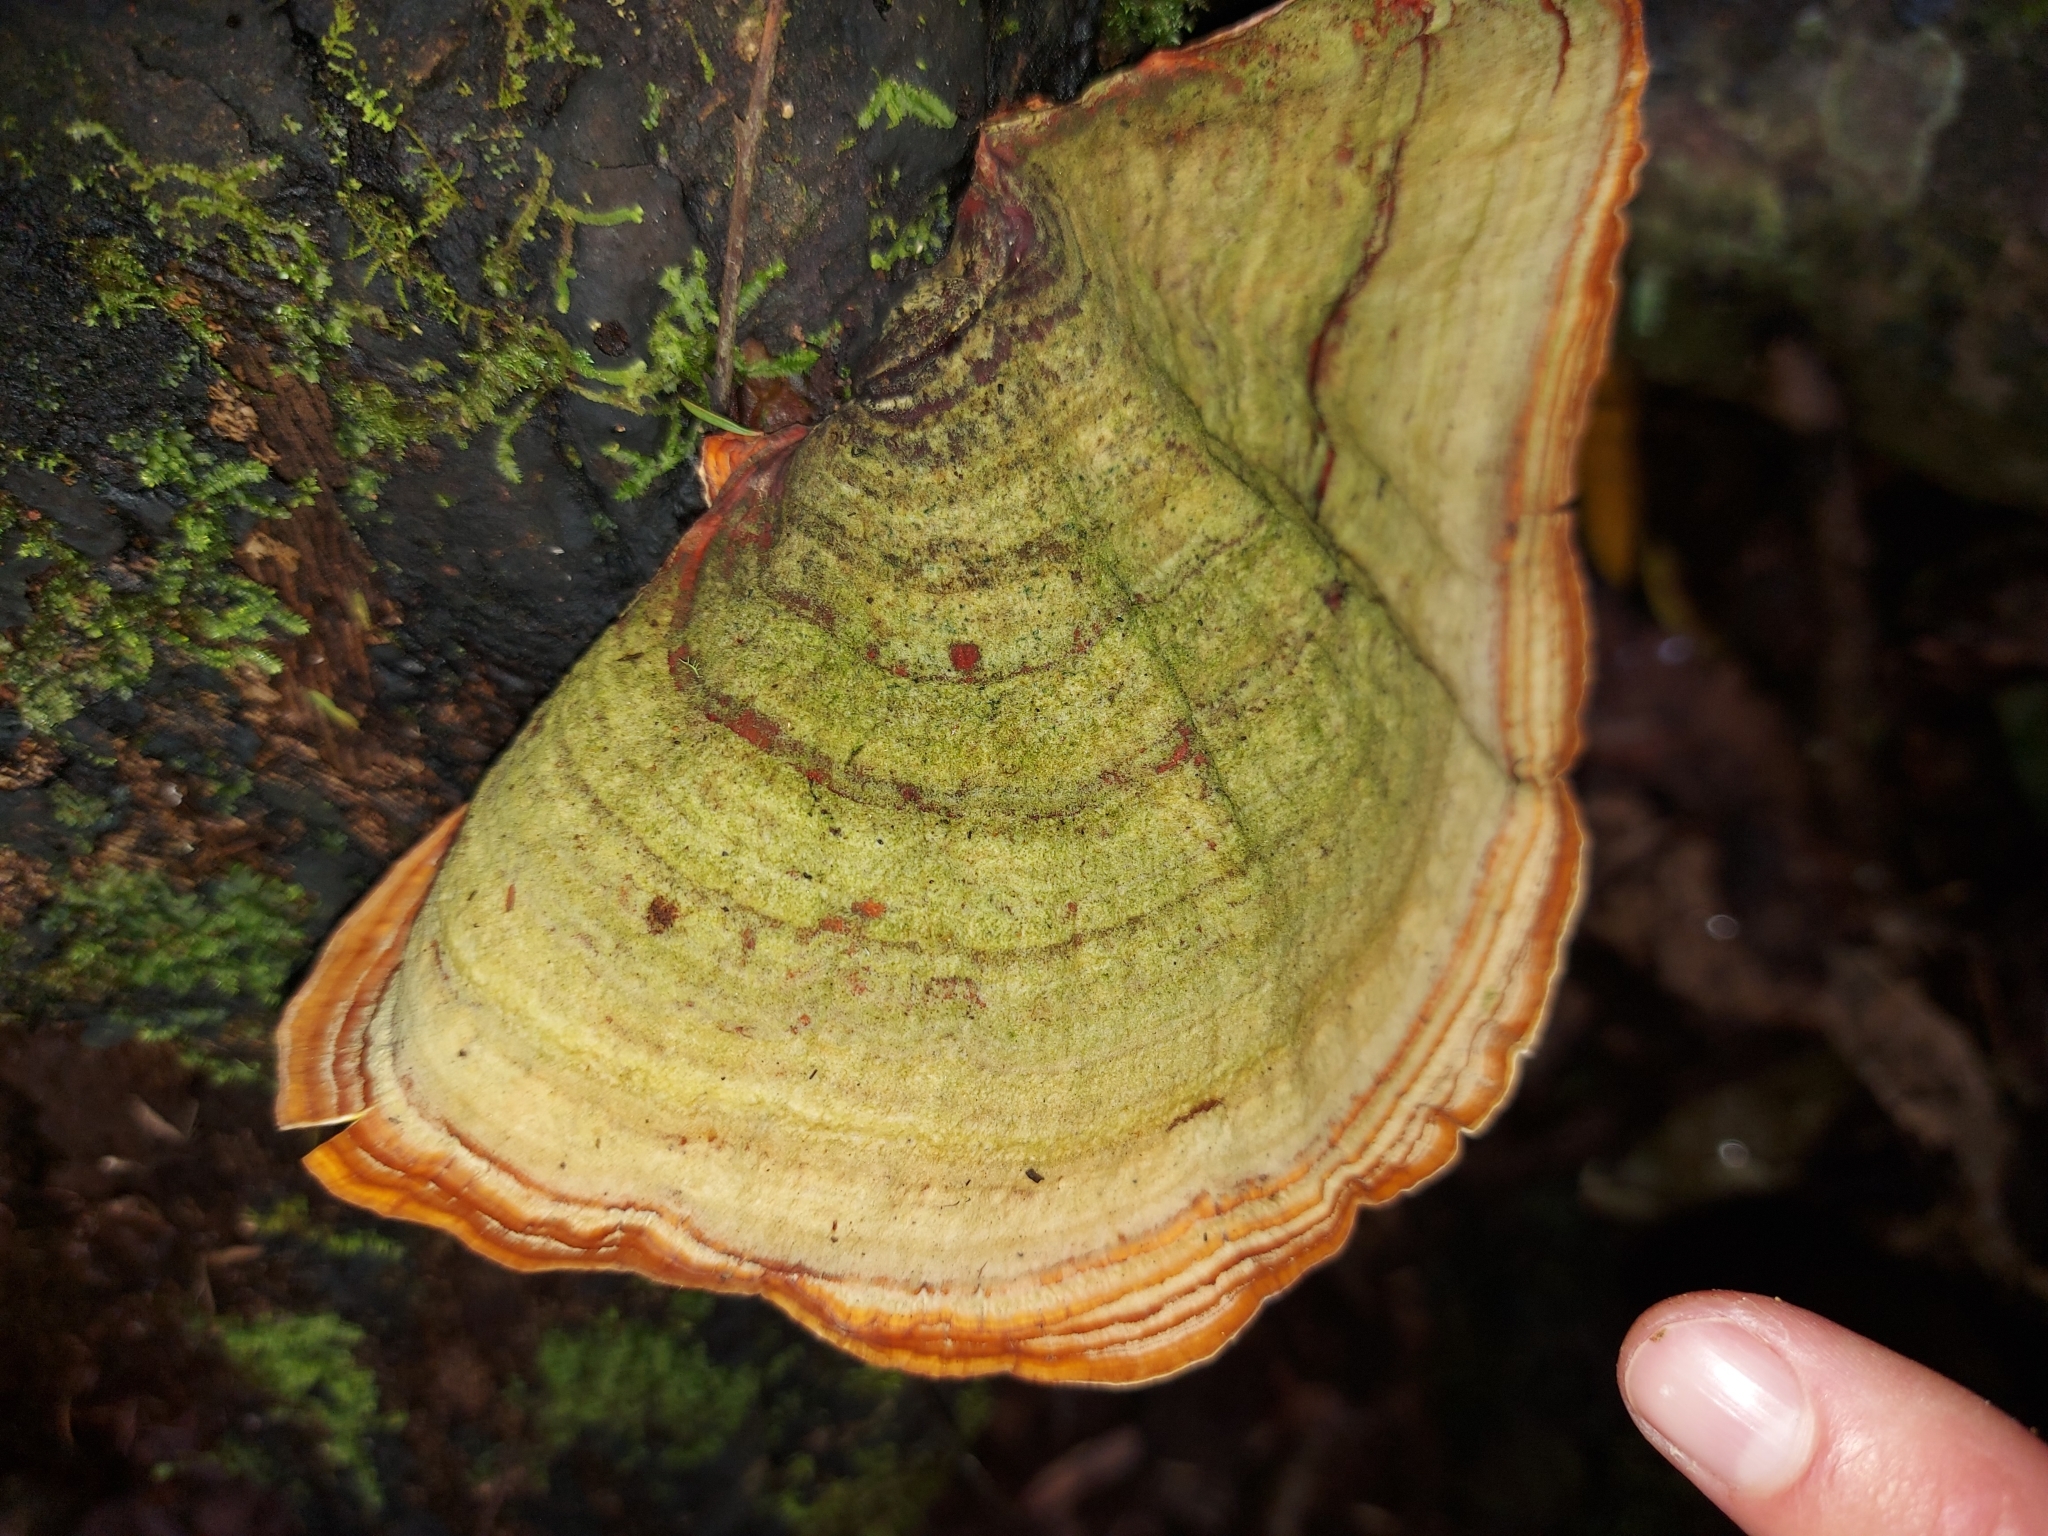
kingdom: Fungi
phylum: Basidiomycota
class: Agaricomycetes
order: Russulales
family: Stereaceae
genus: Stereum
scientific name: Stereum versicolor
